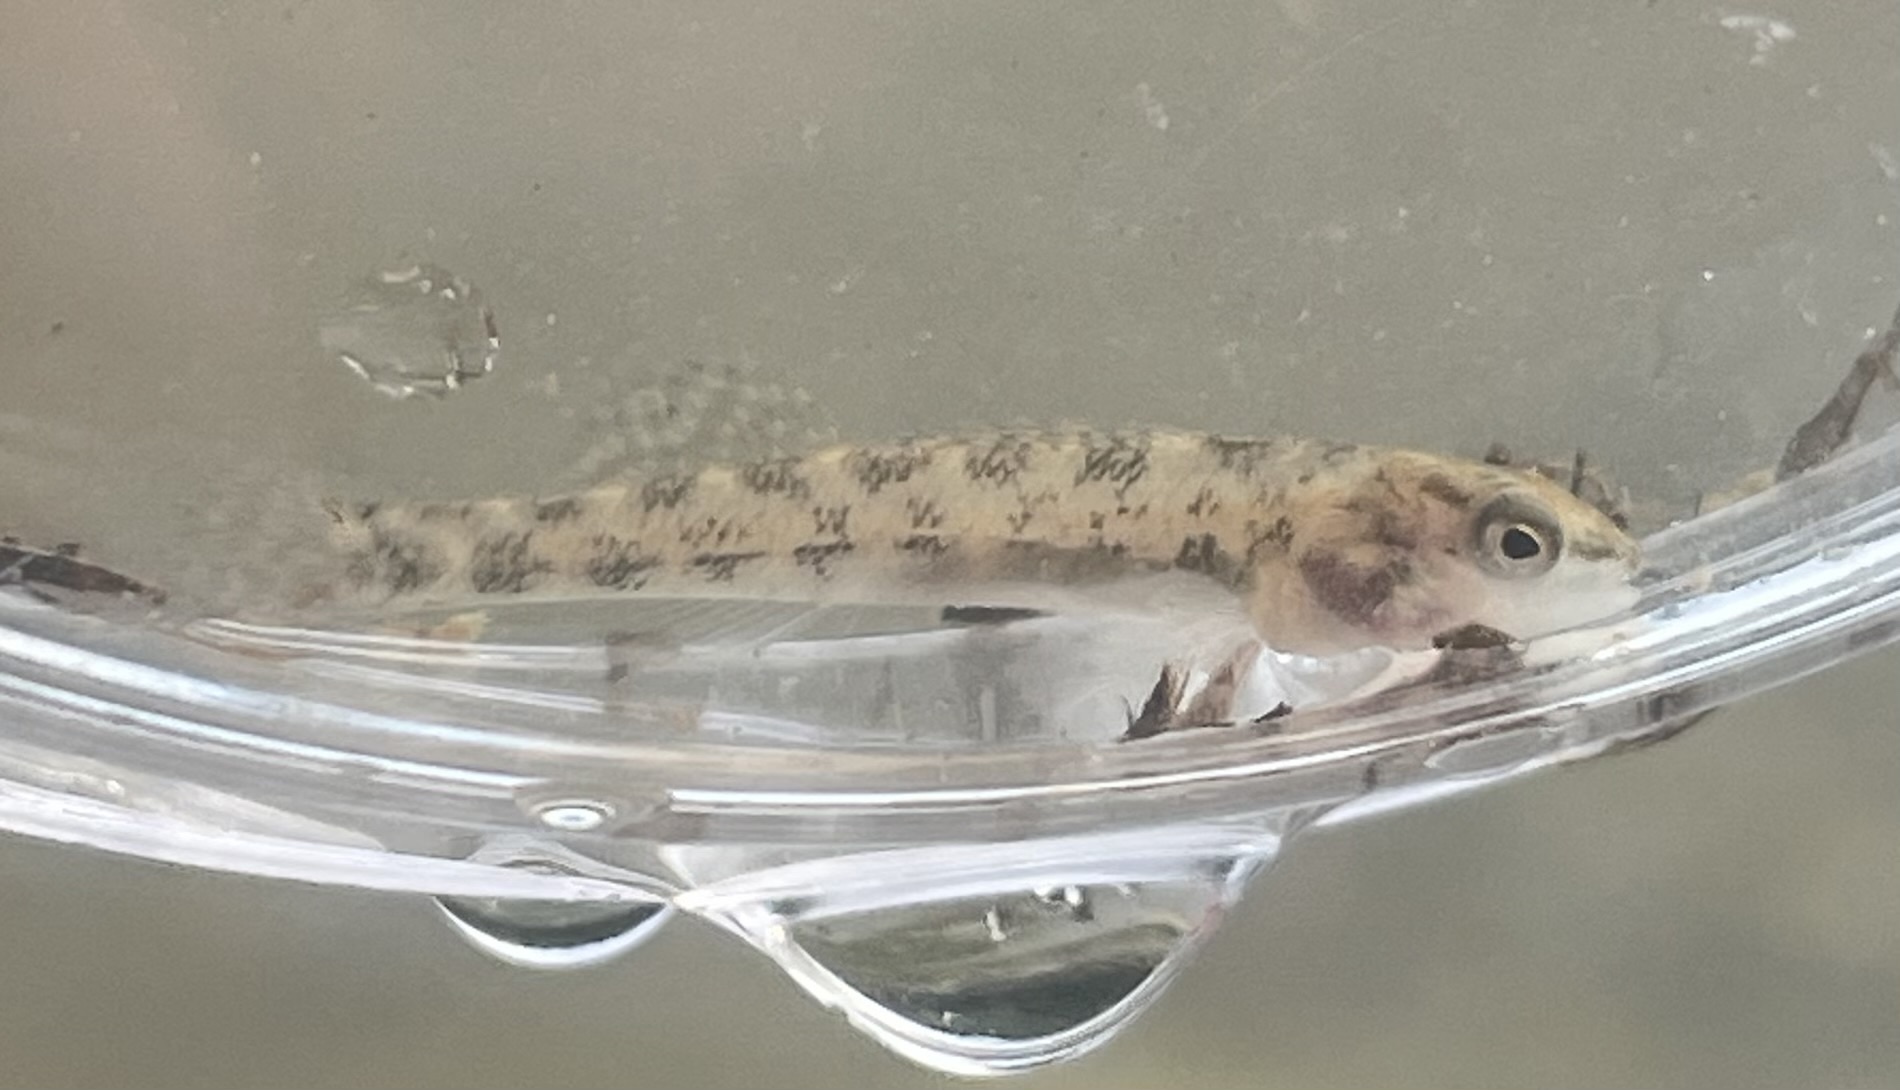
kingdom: Animalia
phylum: Chordata
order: Perciformes
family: Percidae
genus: Etheostoma
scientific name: Etheostoma spectabile
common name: Orangethroat darter
